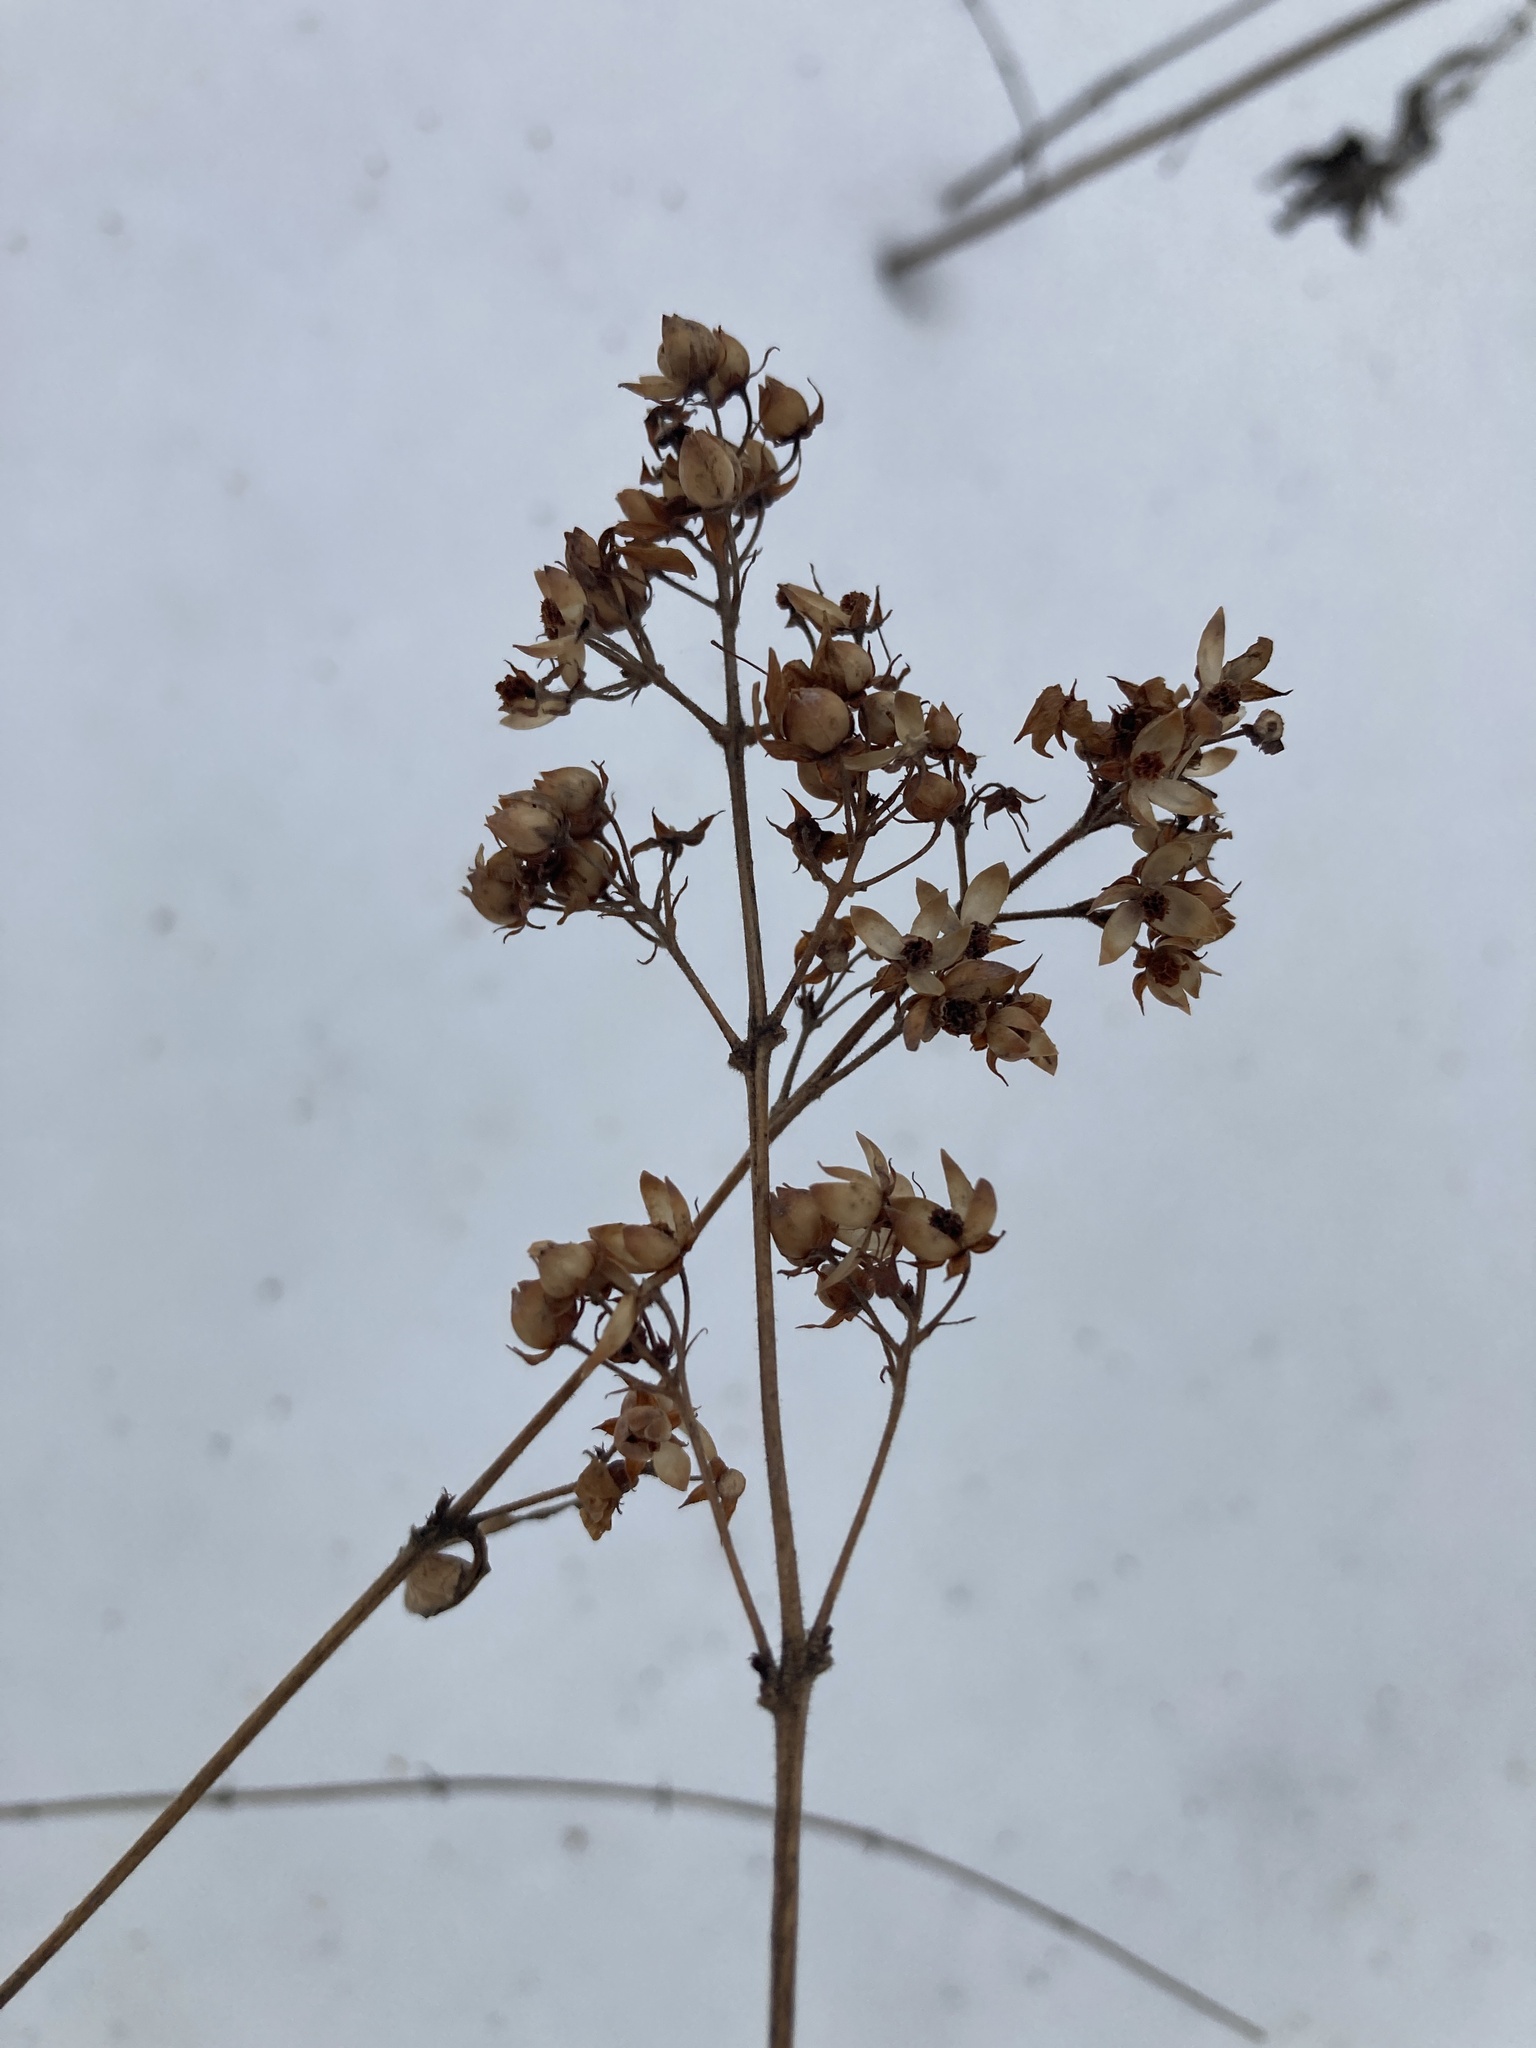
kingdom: Plantae
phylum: Tracheophyta
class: Magnoliopsida
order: Ericales
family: Primulaceae
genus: Lysimachia
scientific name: Lysimachia vulgaris
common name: Yellow loosestrife
